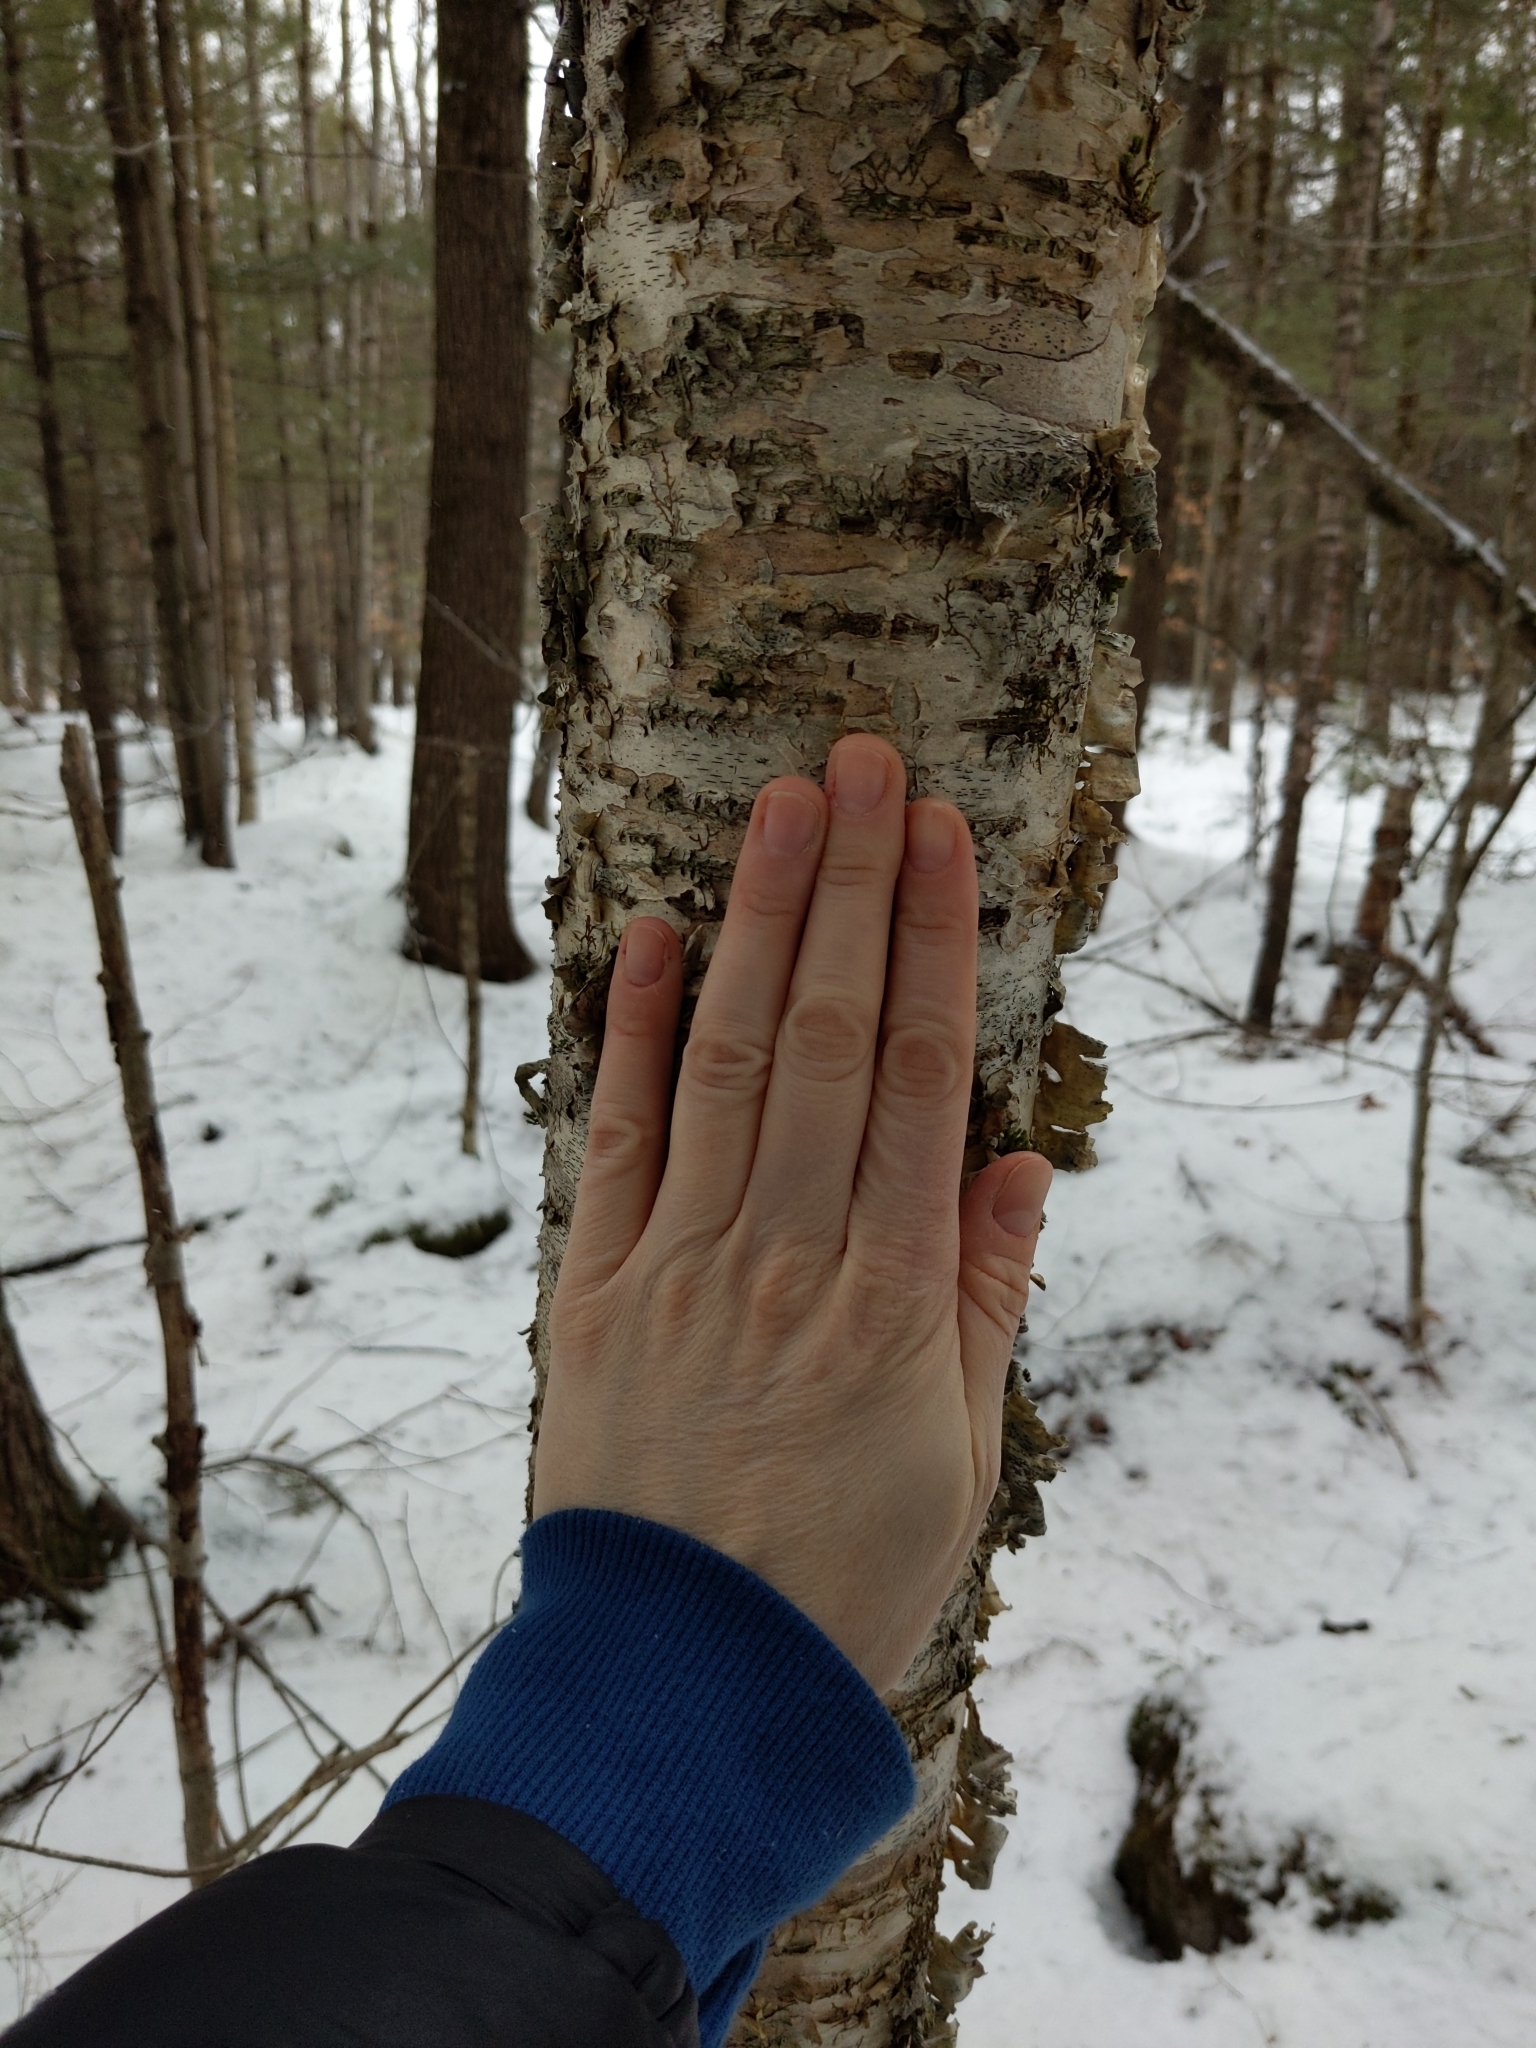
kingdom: Plantae
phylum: Tracheophyta
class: Magnoliopsida
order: Fagales
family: Betulaceae
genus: Betula
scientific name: Betula alleghaniensis
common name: Yellow birch
